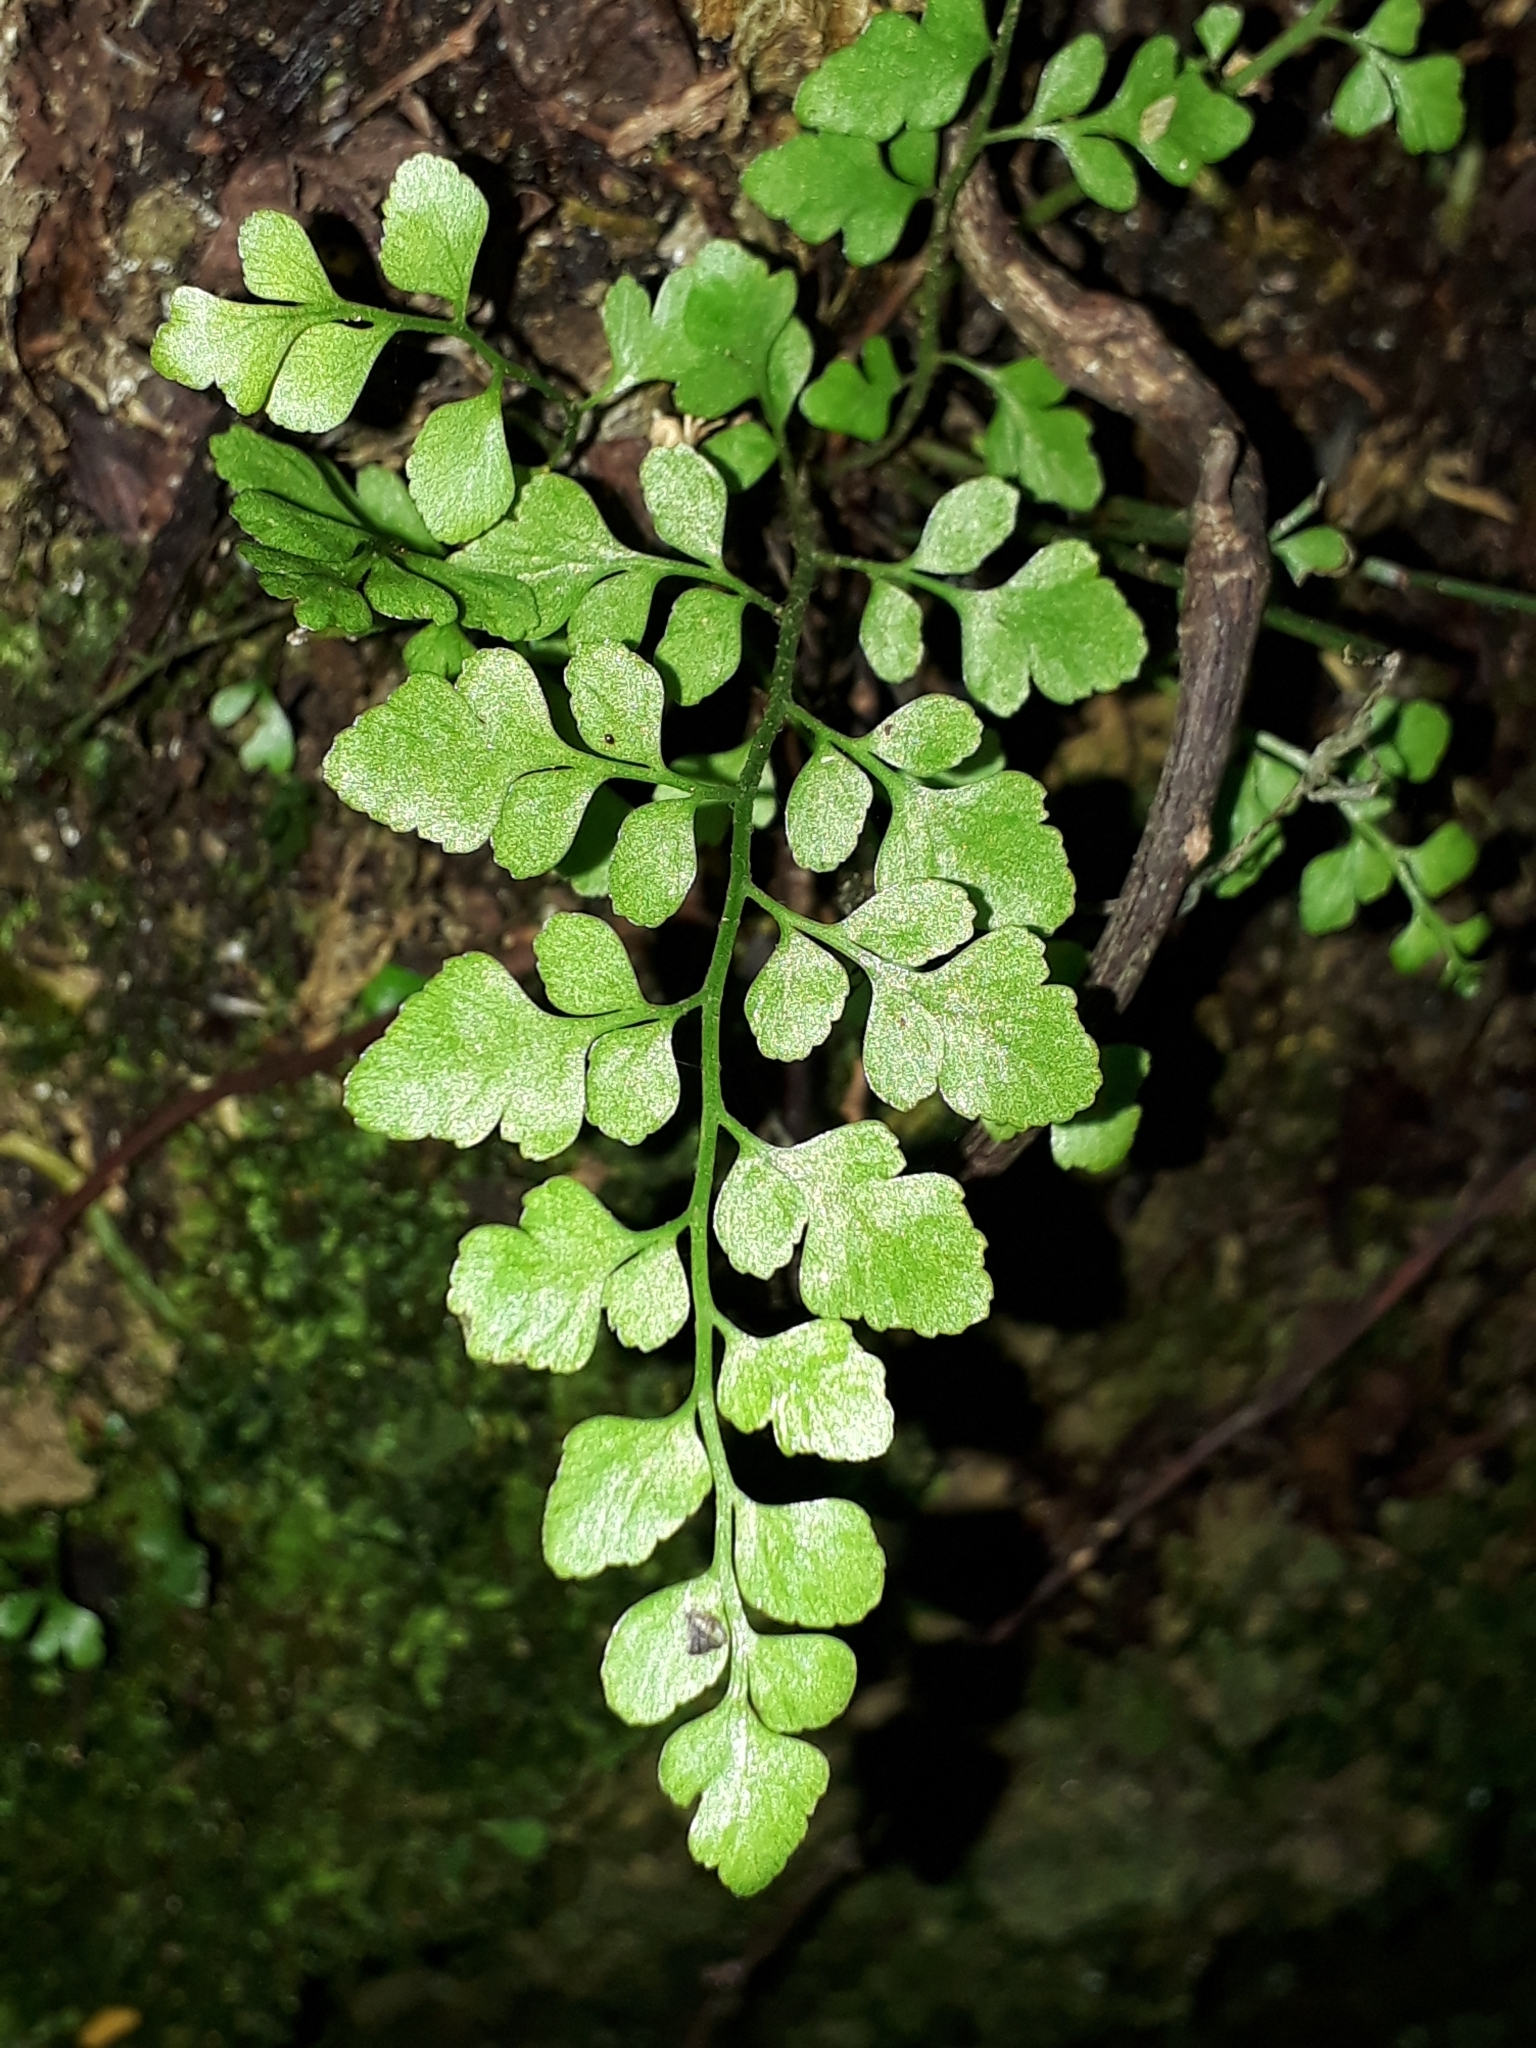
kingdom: Plantae
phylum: Tracheophyta
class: Polypodiopsida
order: Polypodiales
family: Aspleniaceae
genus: Asplenium
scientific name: Asplenium hookerianum
